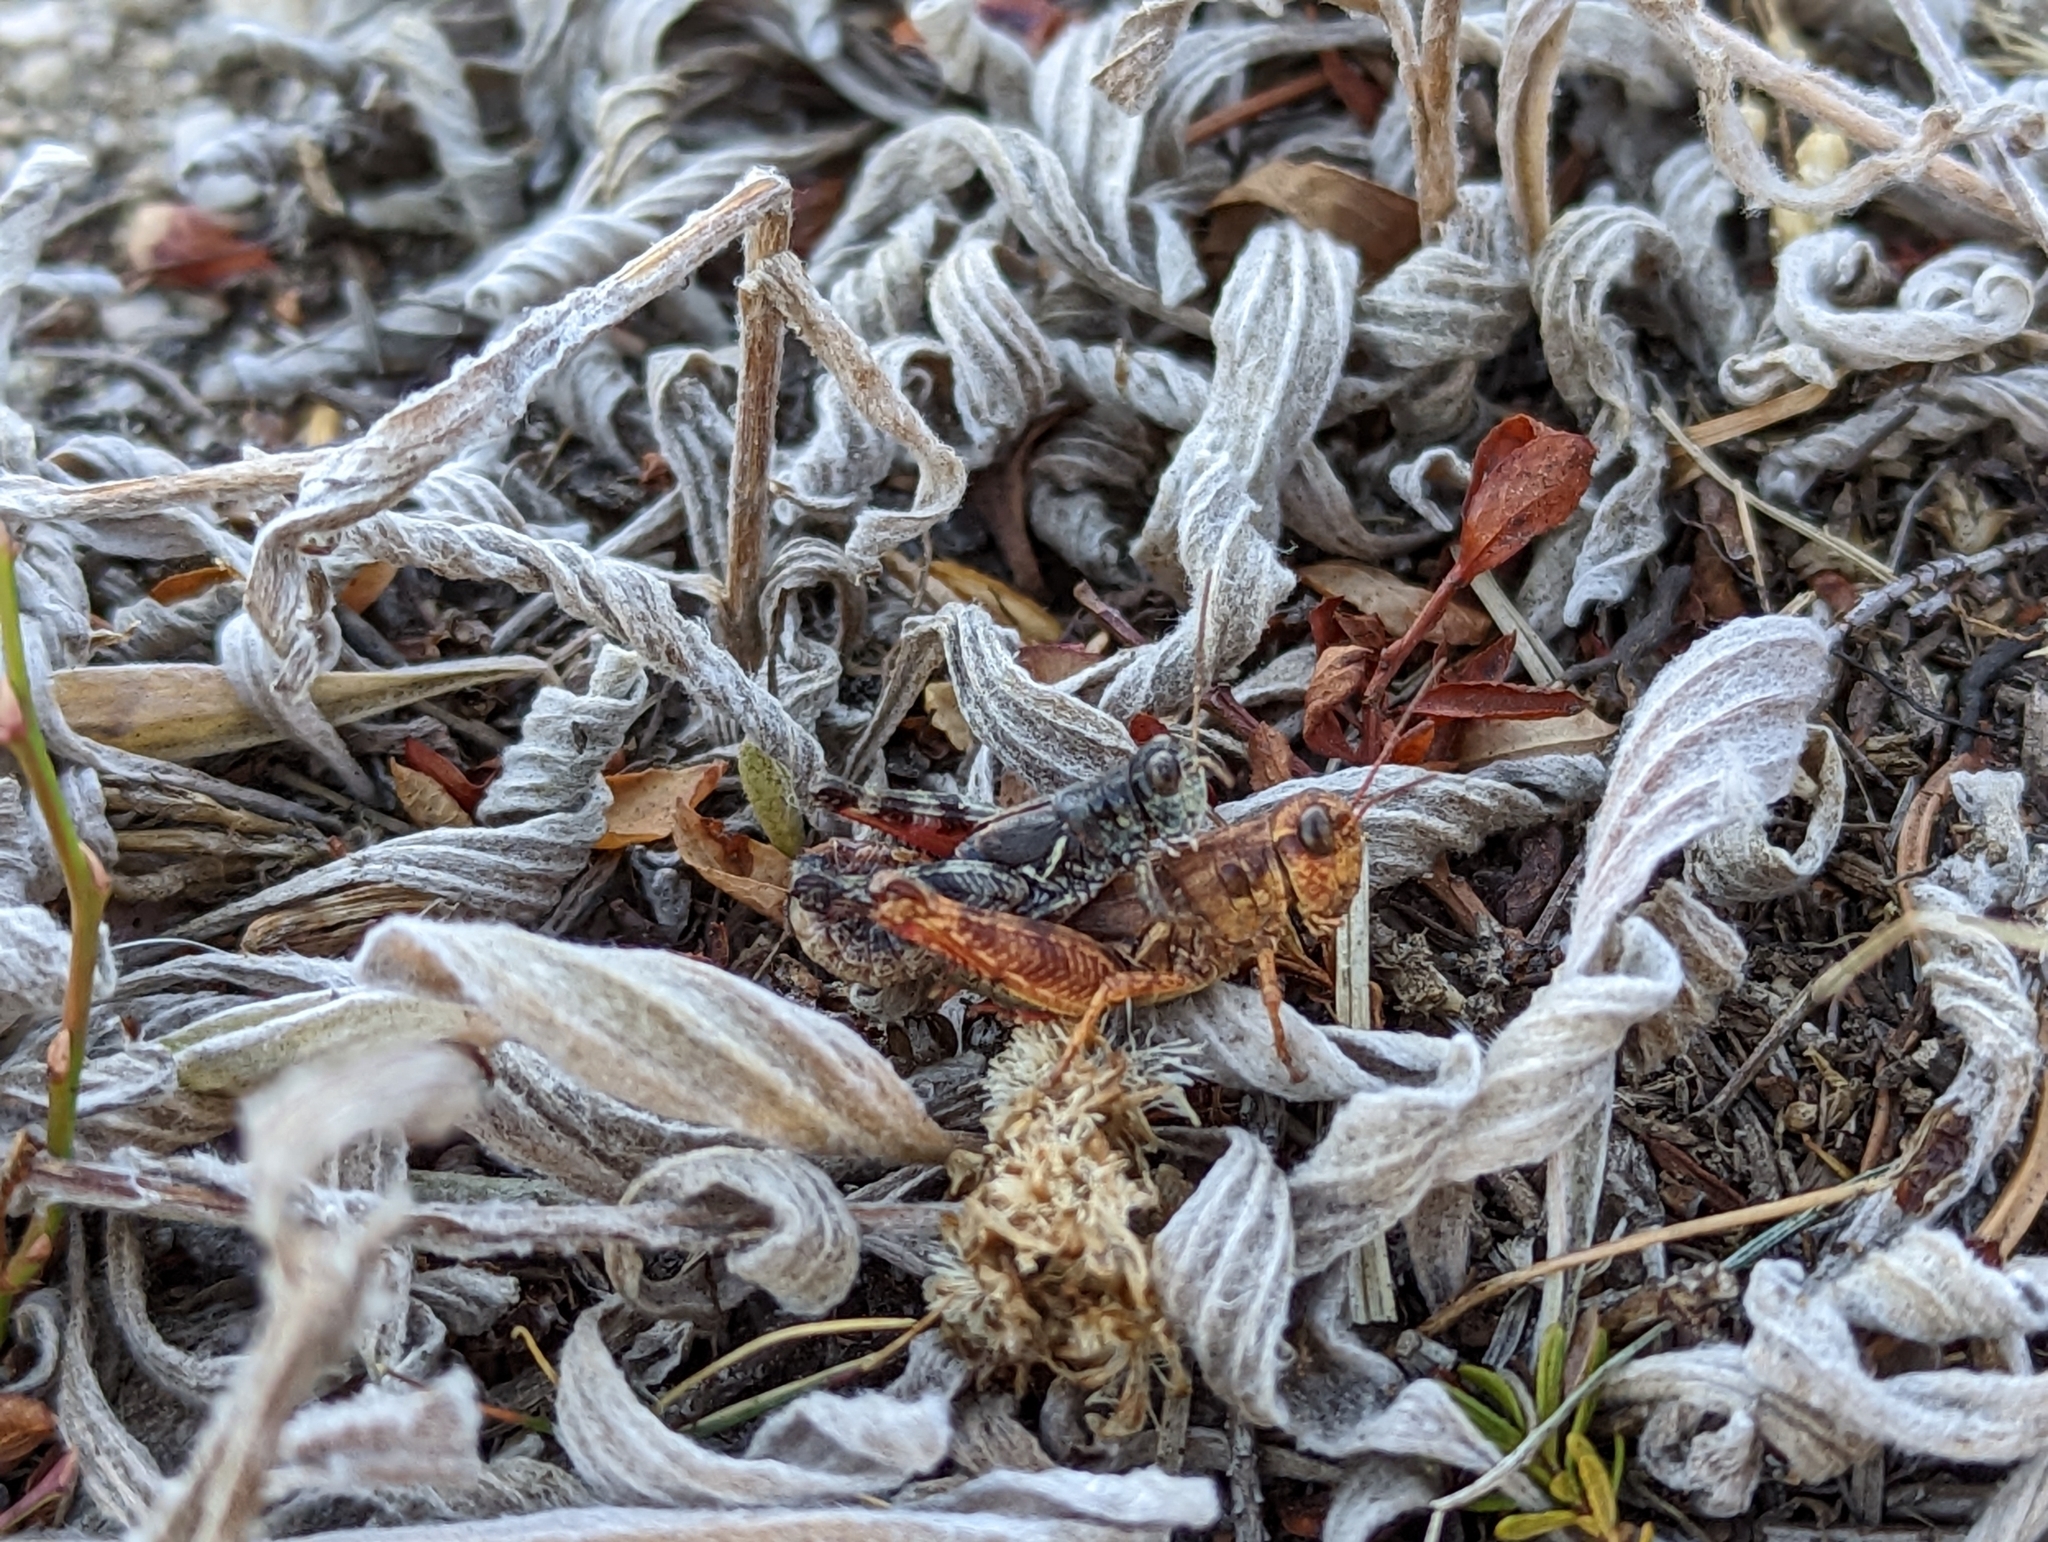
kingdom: Animalia
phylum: Arthropoda
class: Insecta
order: Orthoptera
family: Acrididae
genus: Melanoplus
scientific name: Melanoplus washingtonius
